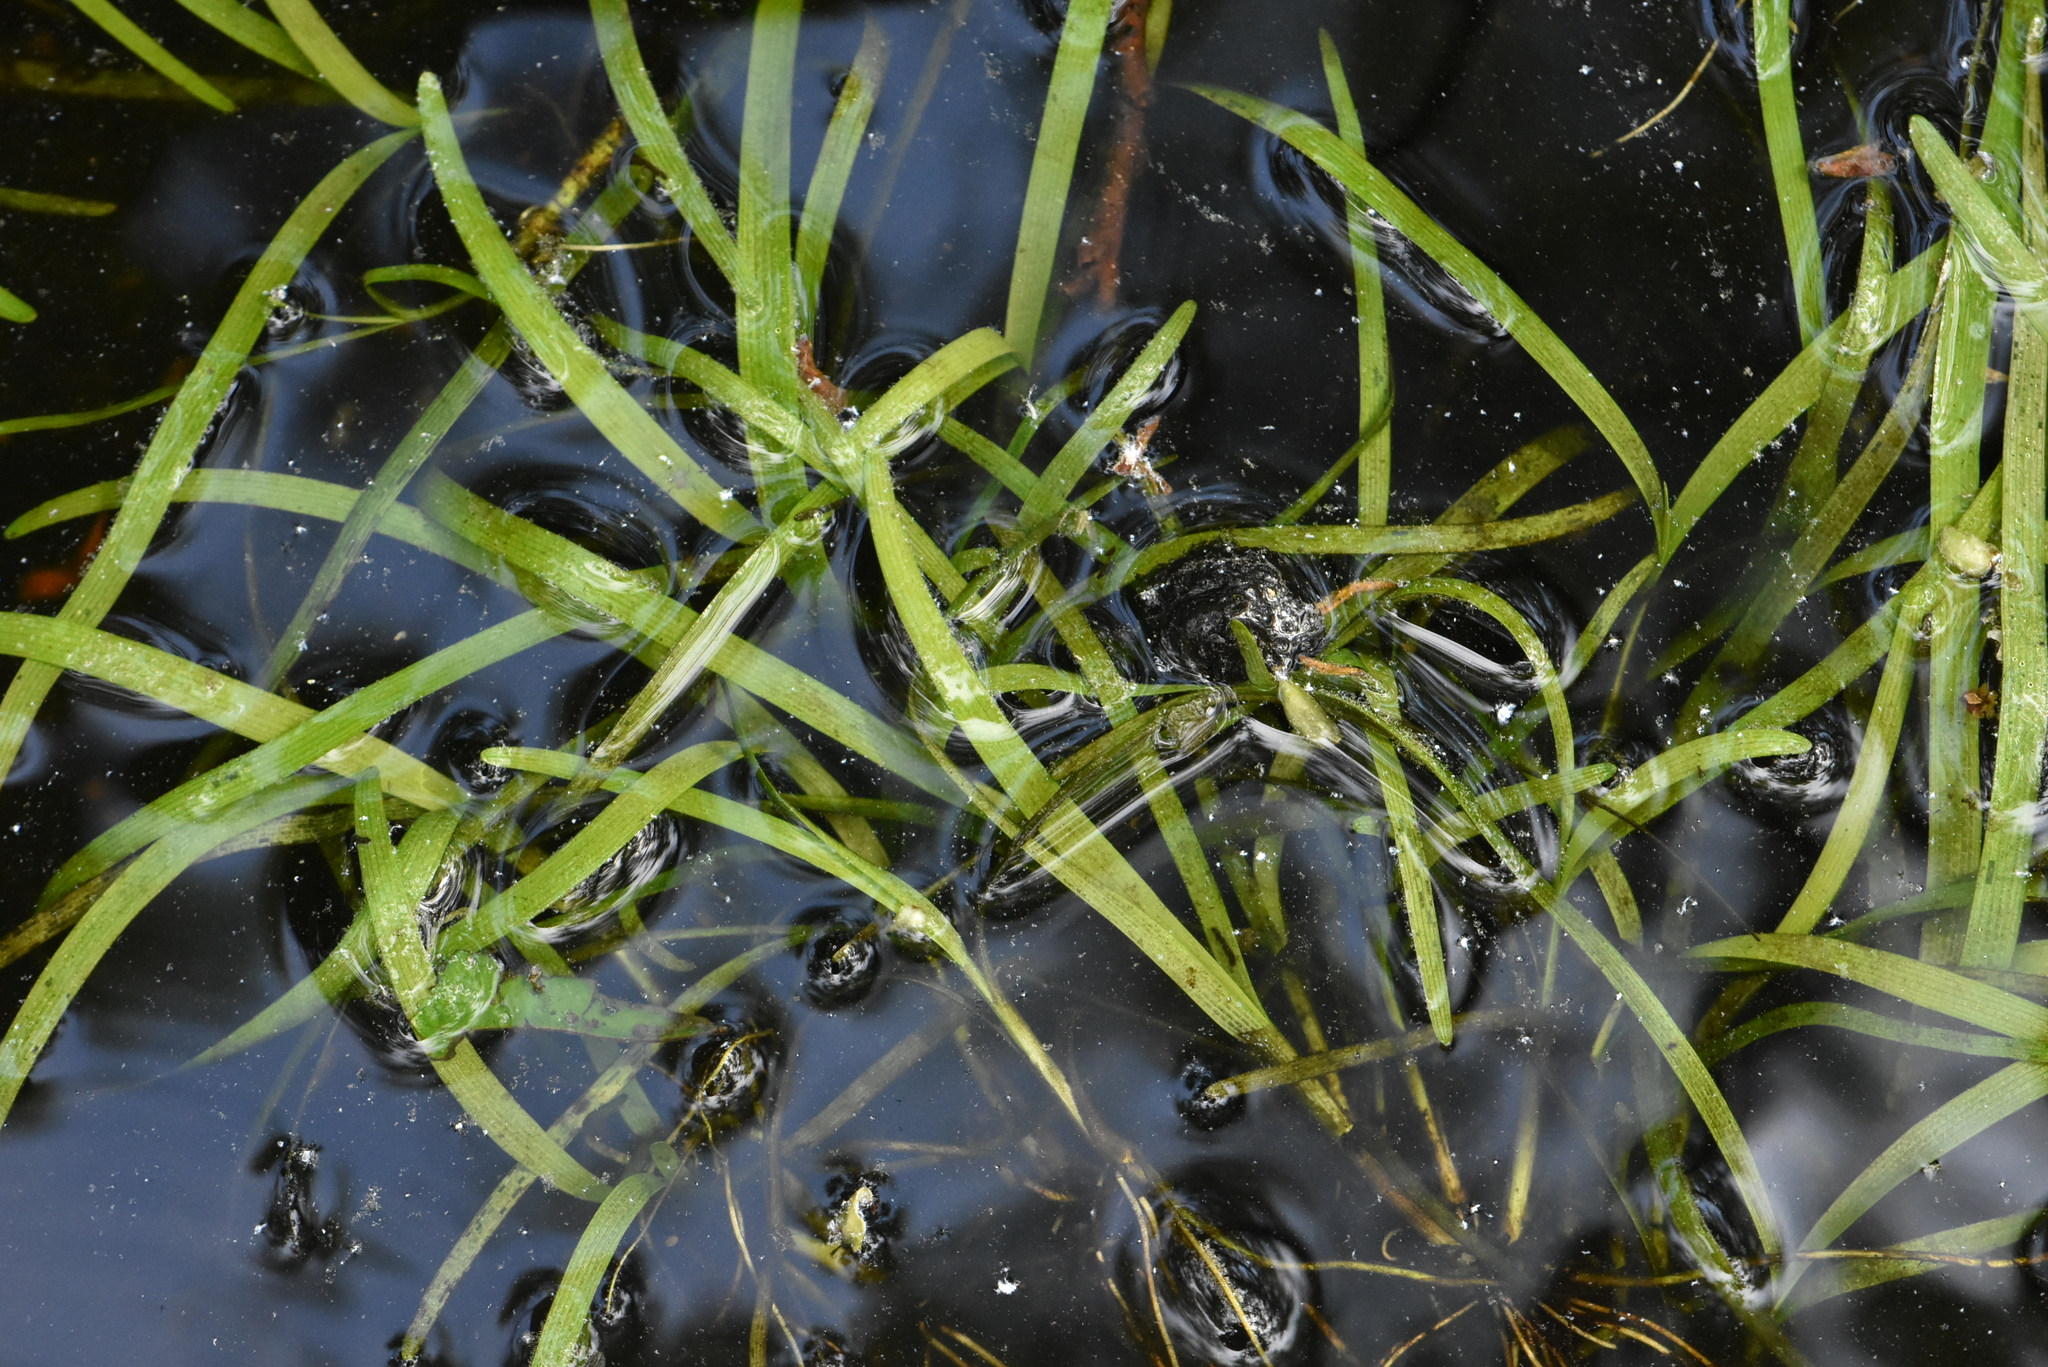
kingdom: Plantae
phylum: Tracheophyta
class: Liliopsida
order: Poales
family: Typhaceae
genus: Sparganium
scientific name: Sparganium natans
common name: Least bur-reed
